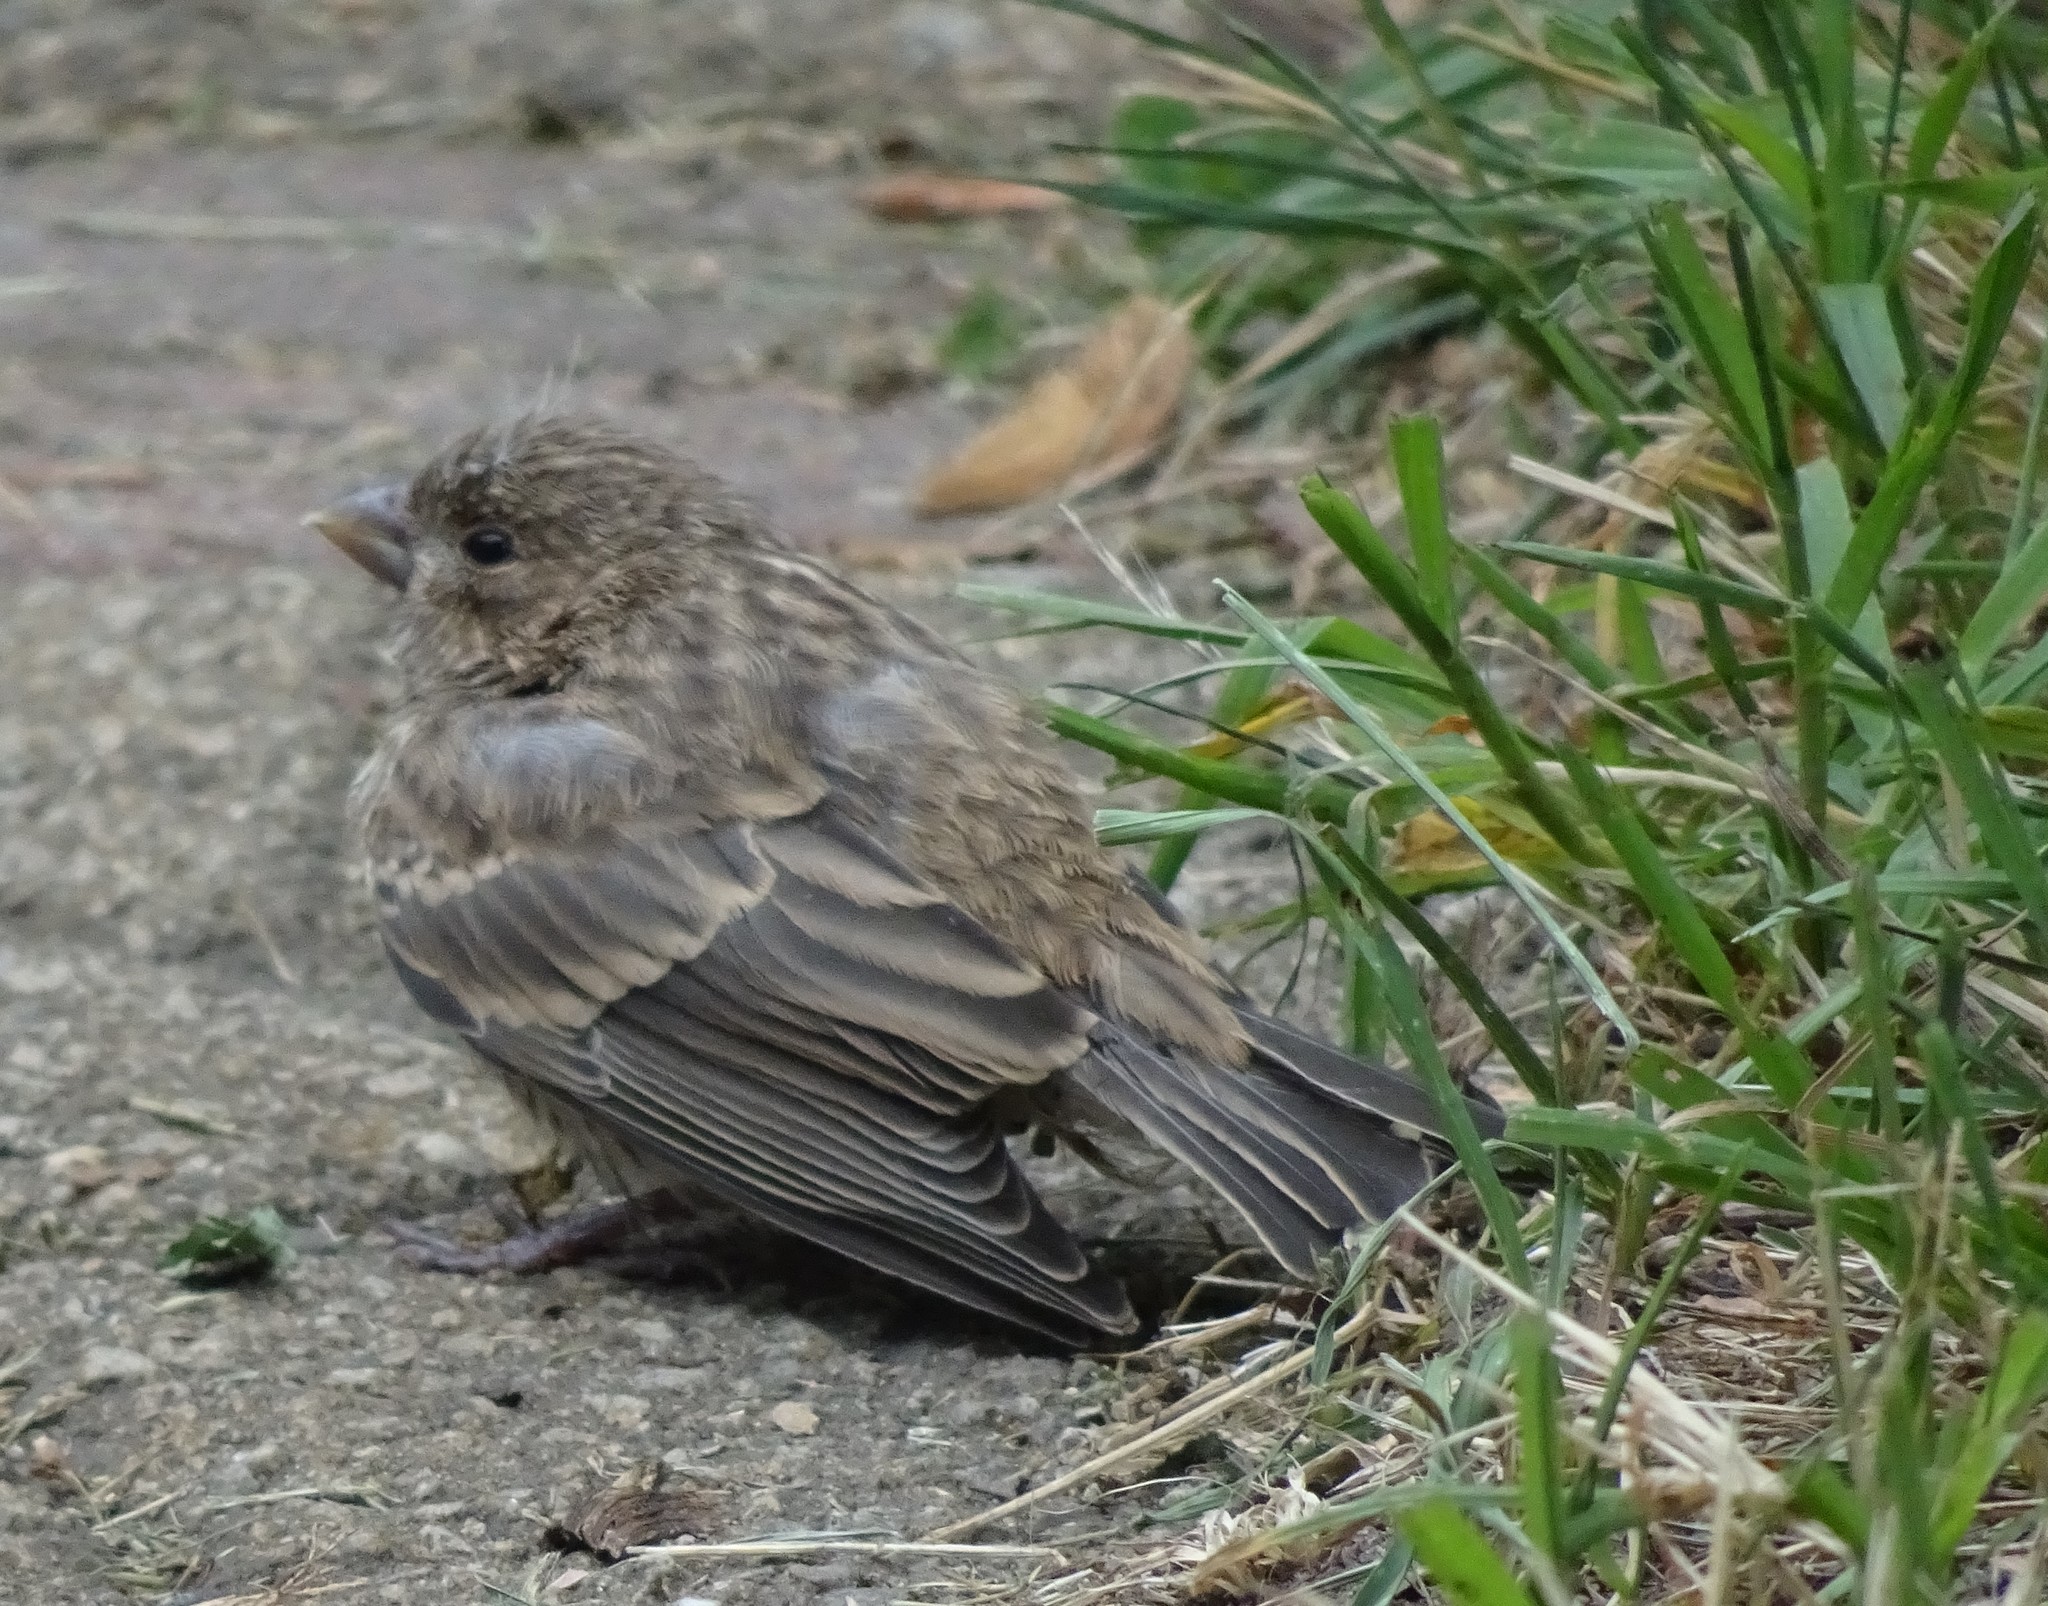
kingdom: Animalia
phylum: Chordata
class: Aves
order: Passeriformes
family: Fringillidae
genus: Haemorhous
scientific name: Haemorhous mexicanus
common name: House finch
